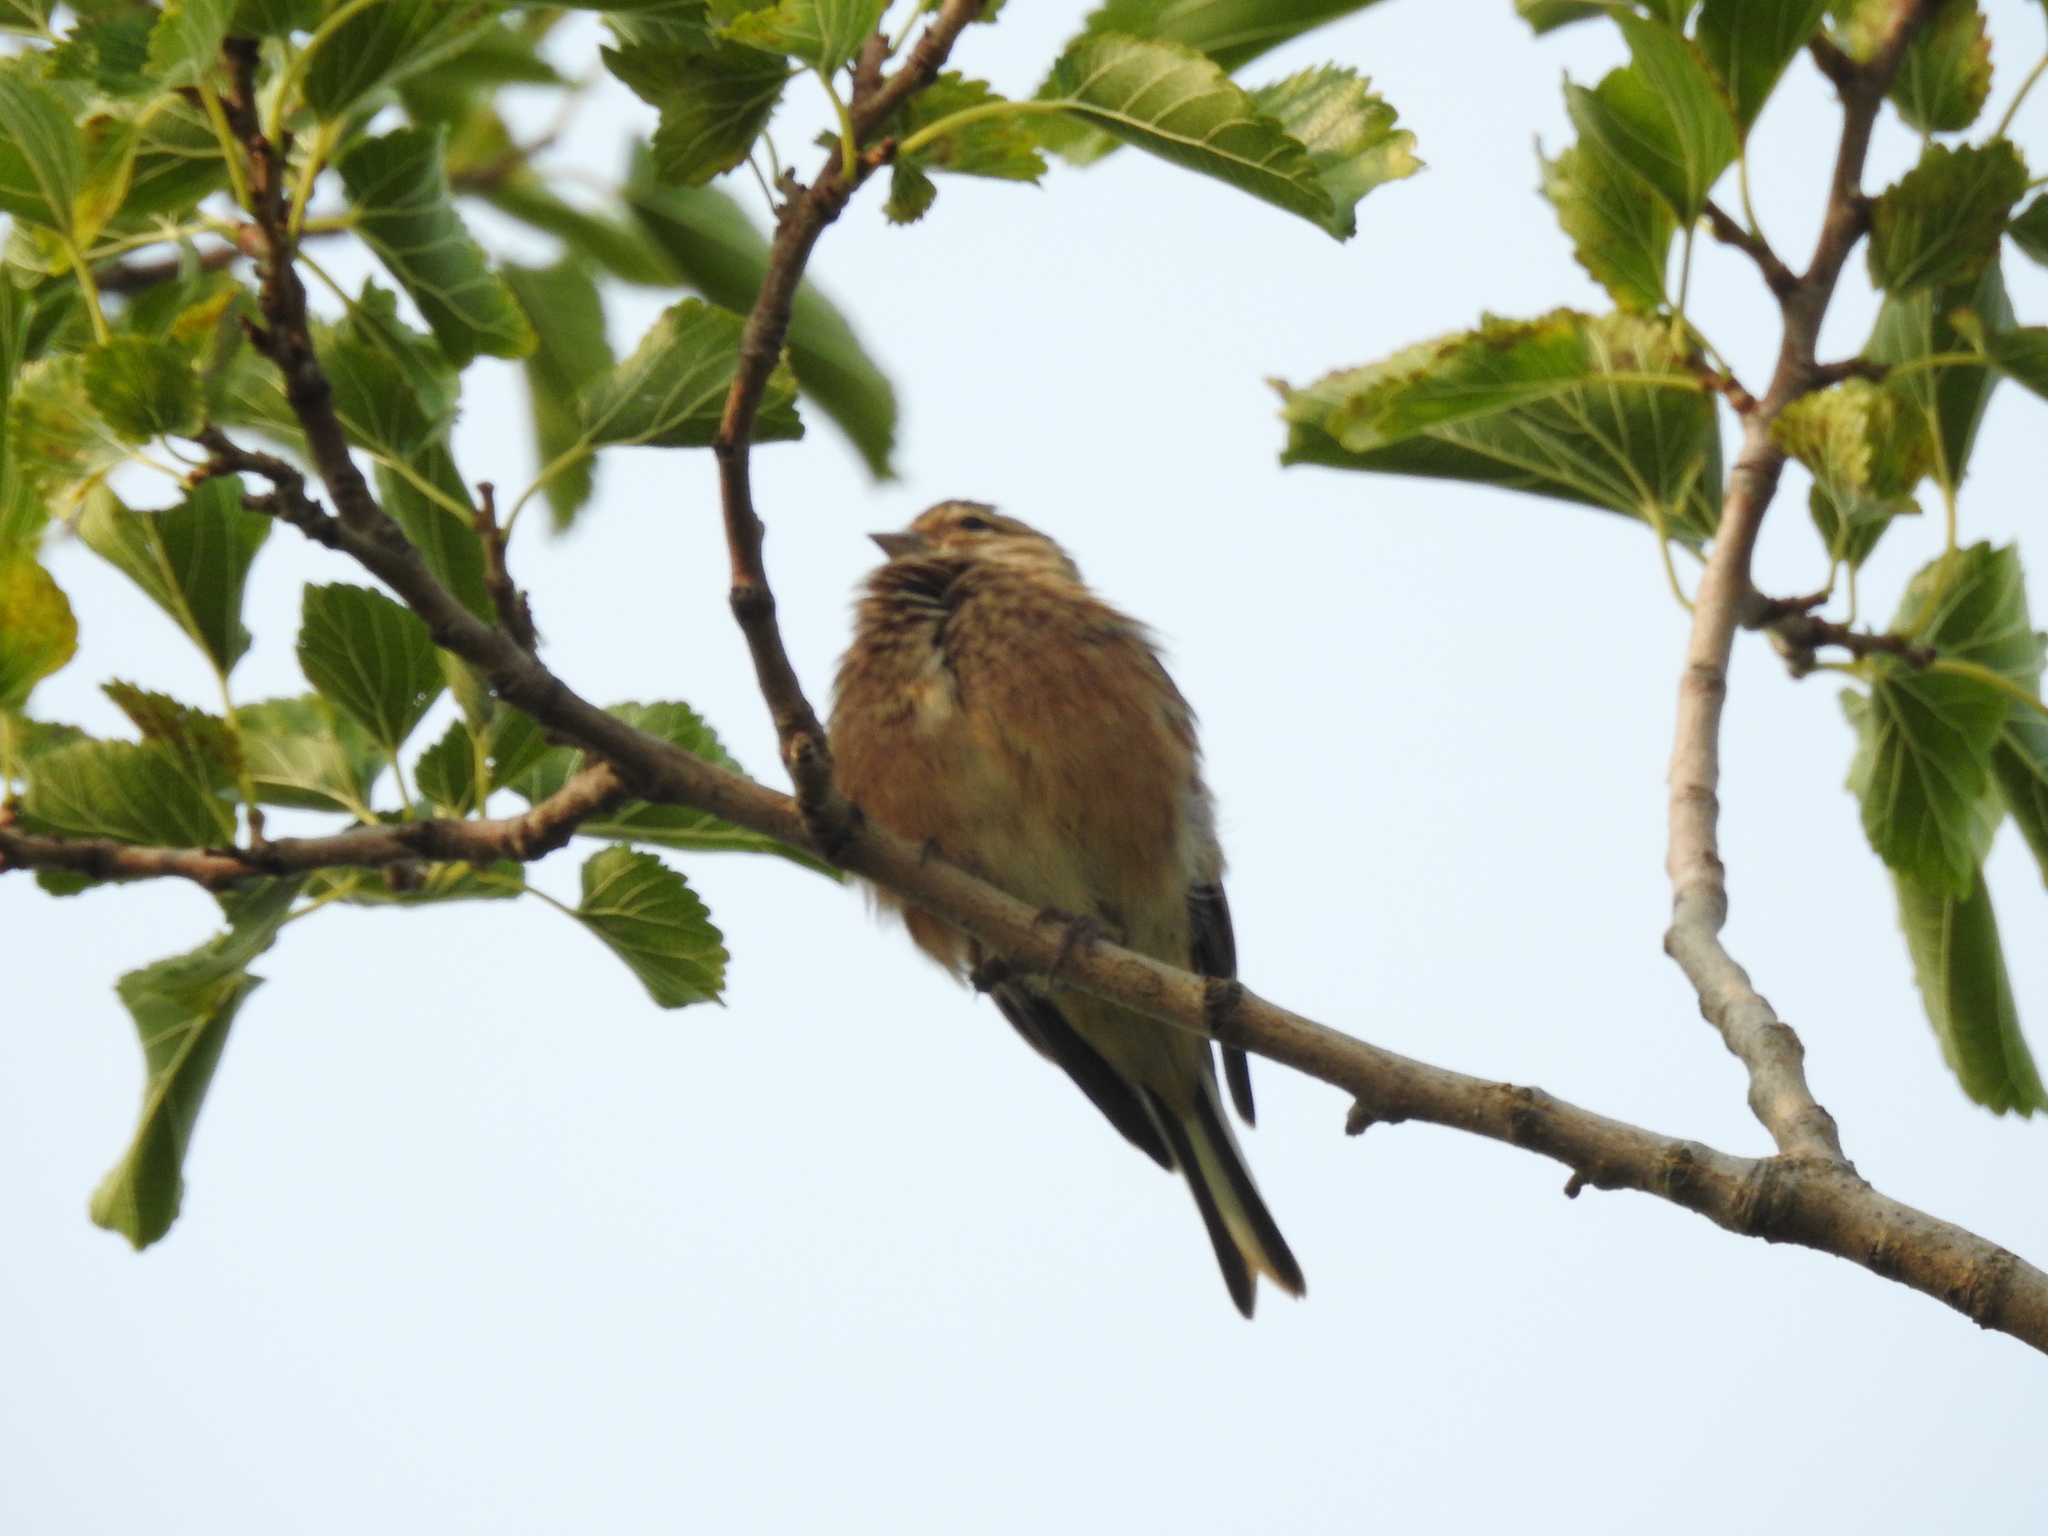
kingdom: Animalia
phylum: Chordata
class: Aves
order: Passeriformes
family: Fringillidae
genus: Linaria
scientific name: Linaria cannabina
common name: Common linnet
